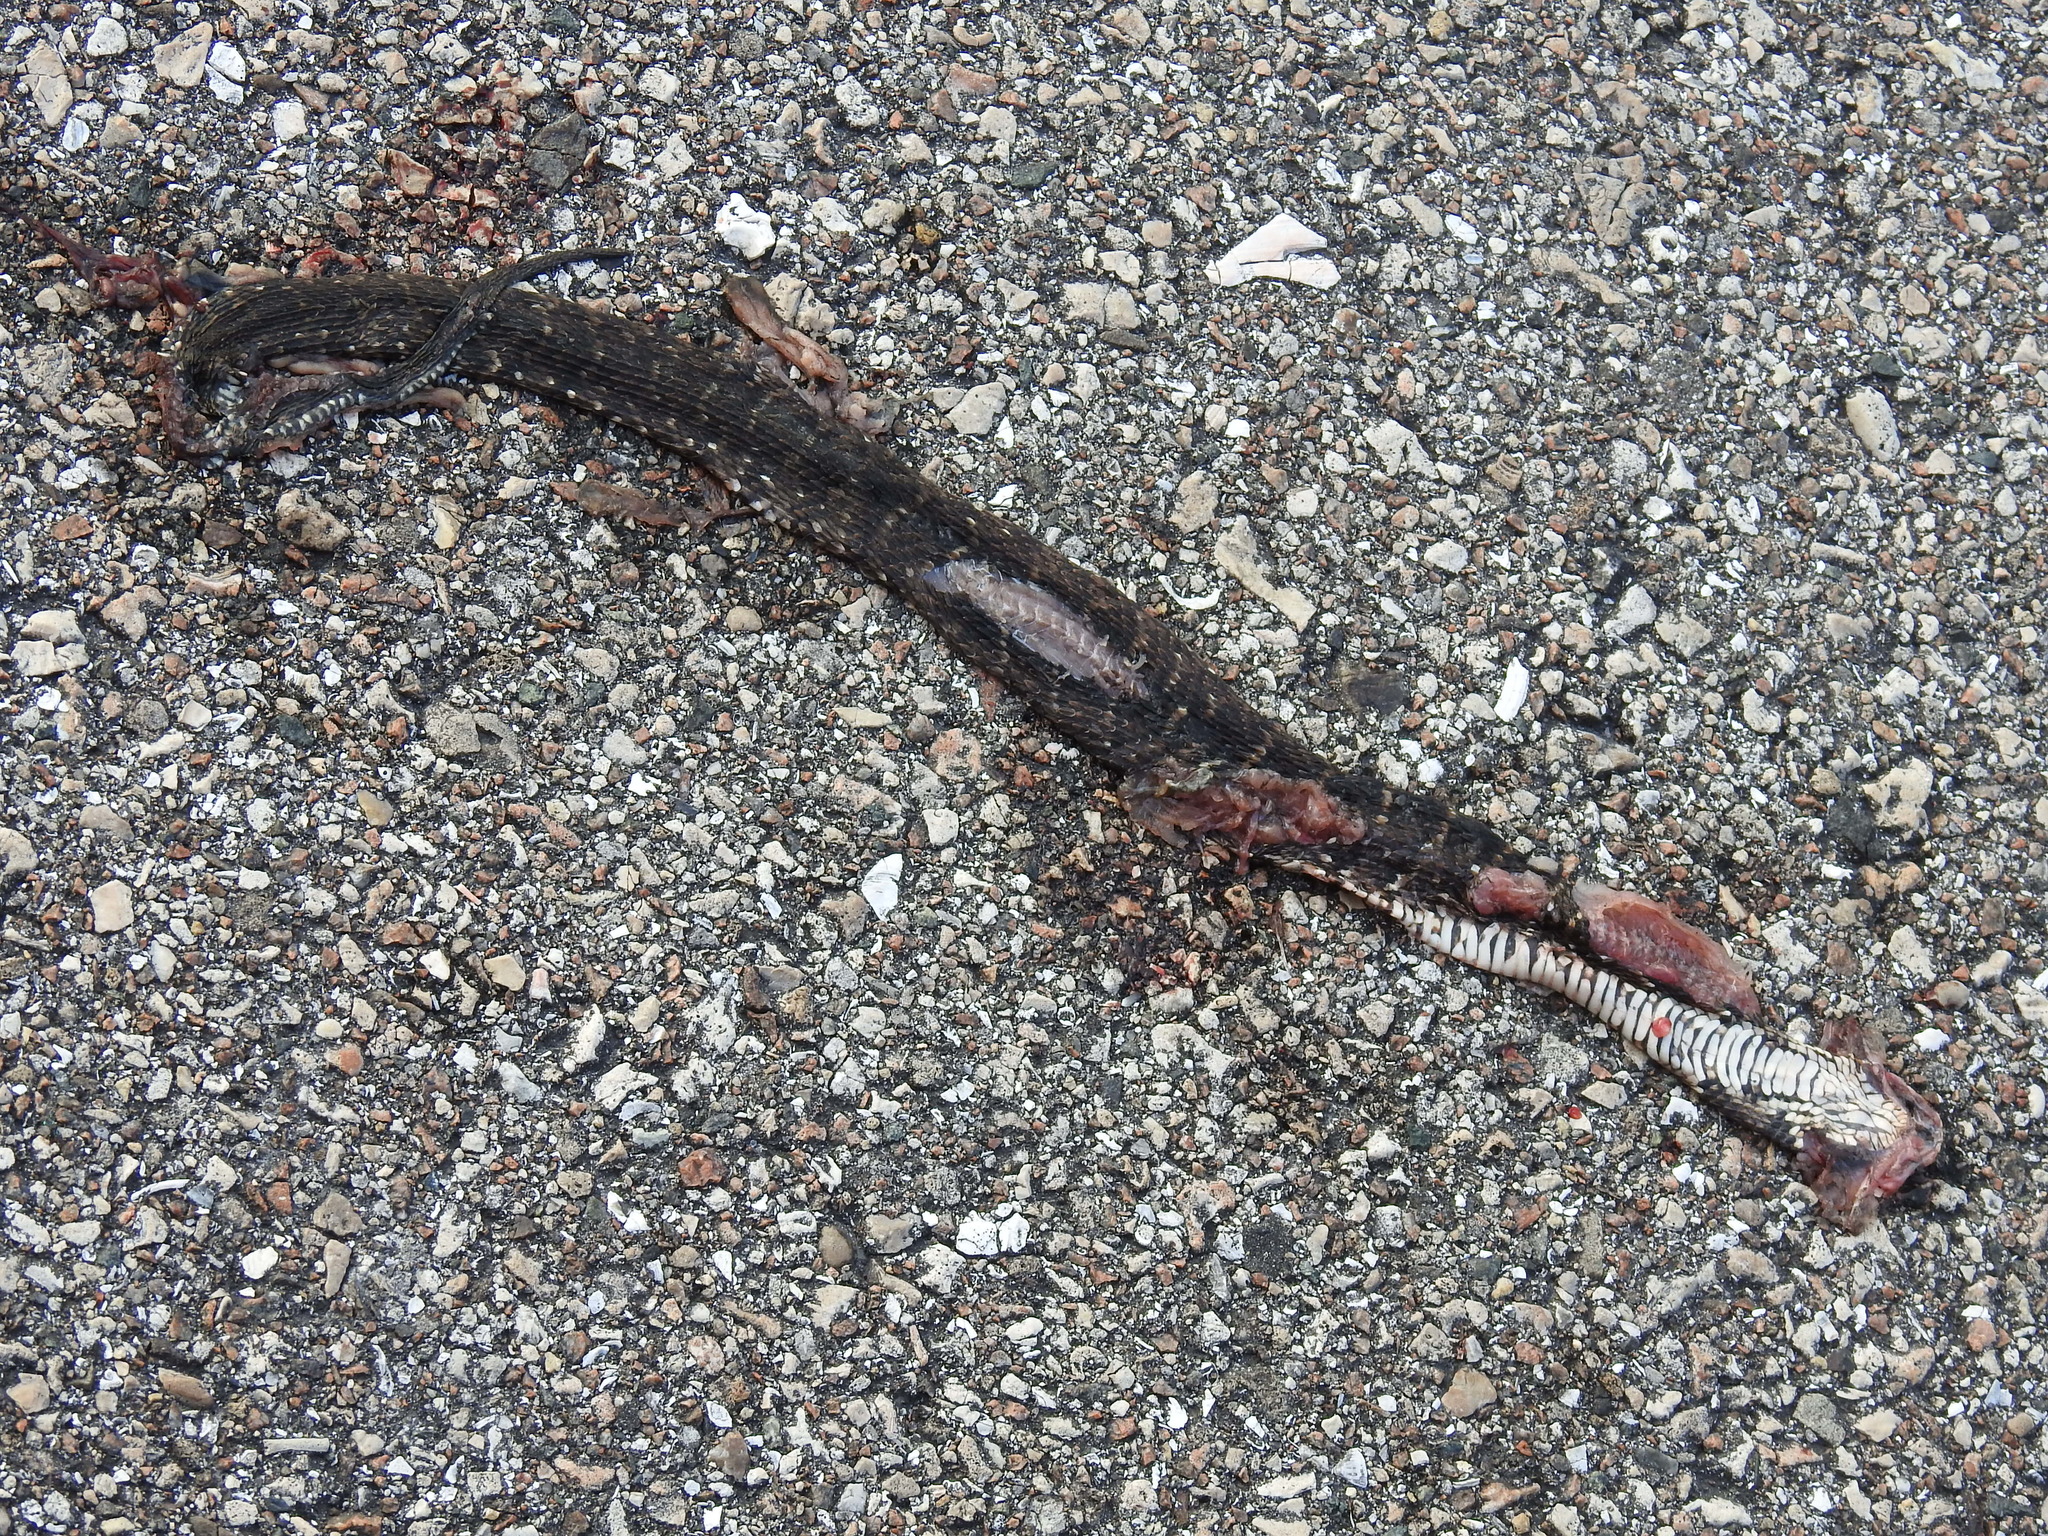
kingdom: Animalia
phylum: Chordata
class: Squamata
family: Colubridae
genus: Nerodia
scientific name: Nerodia fasciata
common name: Southern water snake
